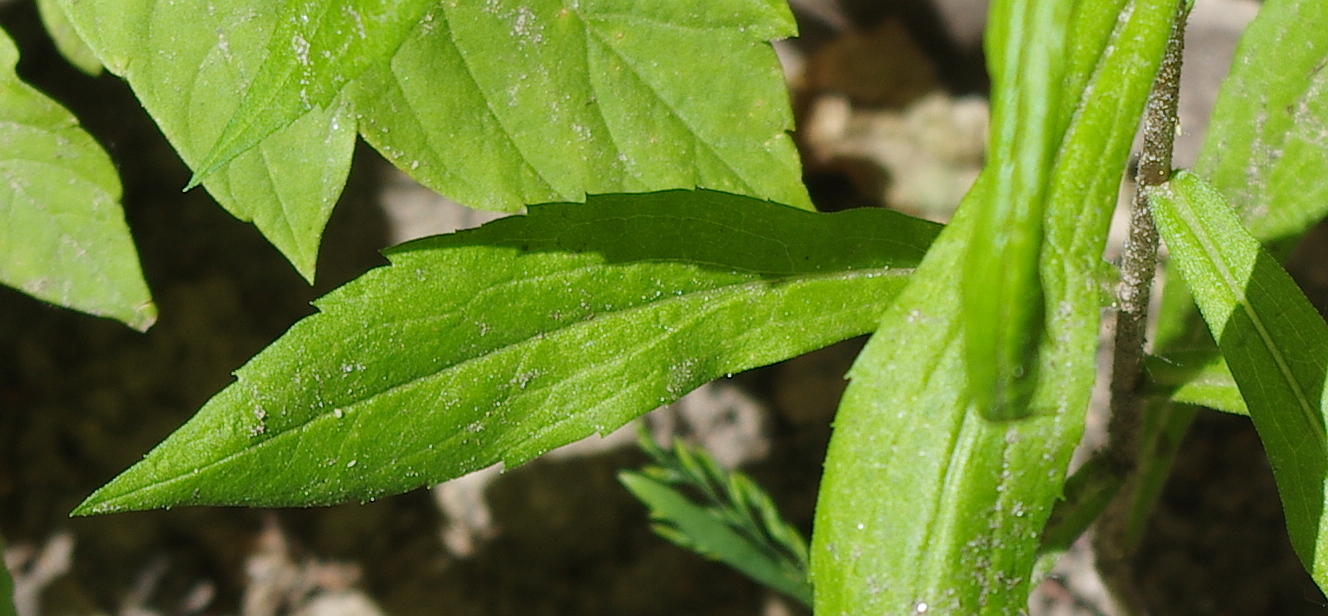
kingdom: Plantae
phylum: Tracheophyta
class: Magnoliopsida
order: Asterales
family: Asteraceae
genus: Solidago
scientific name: Solidago canadensis
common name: Canada goldenrod
